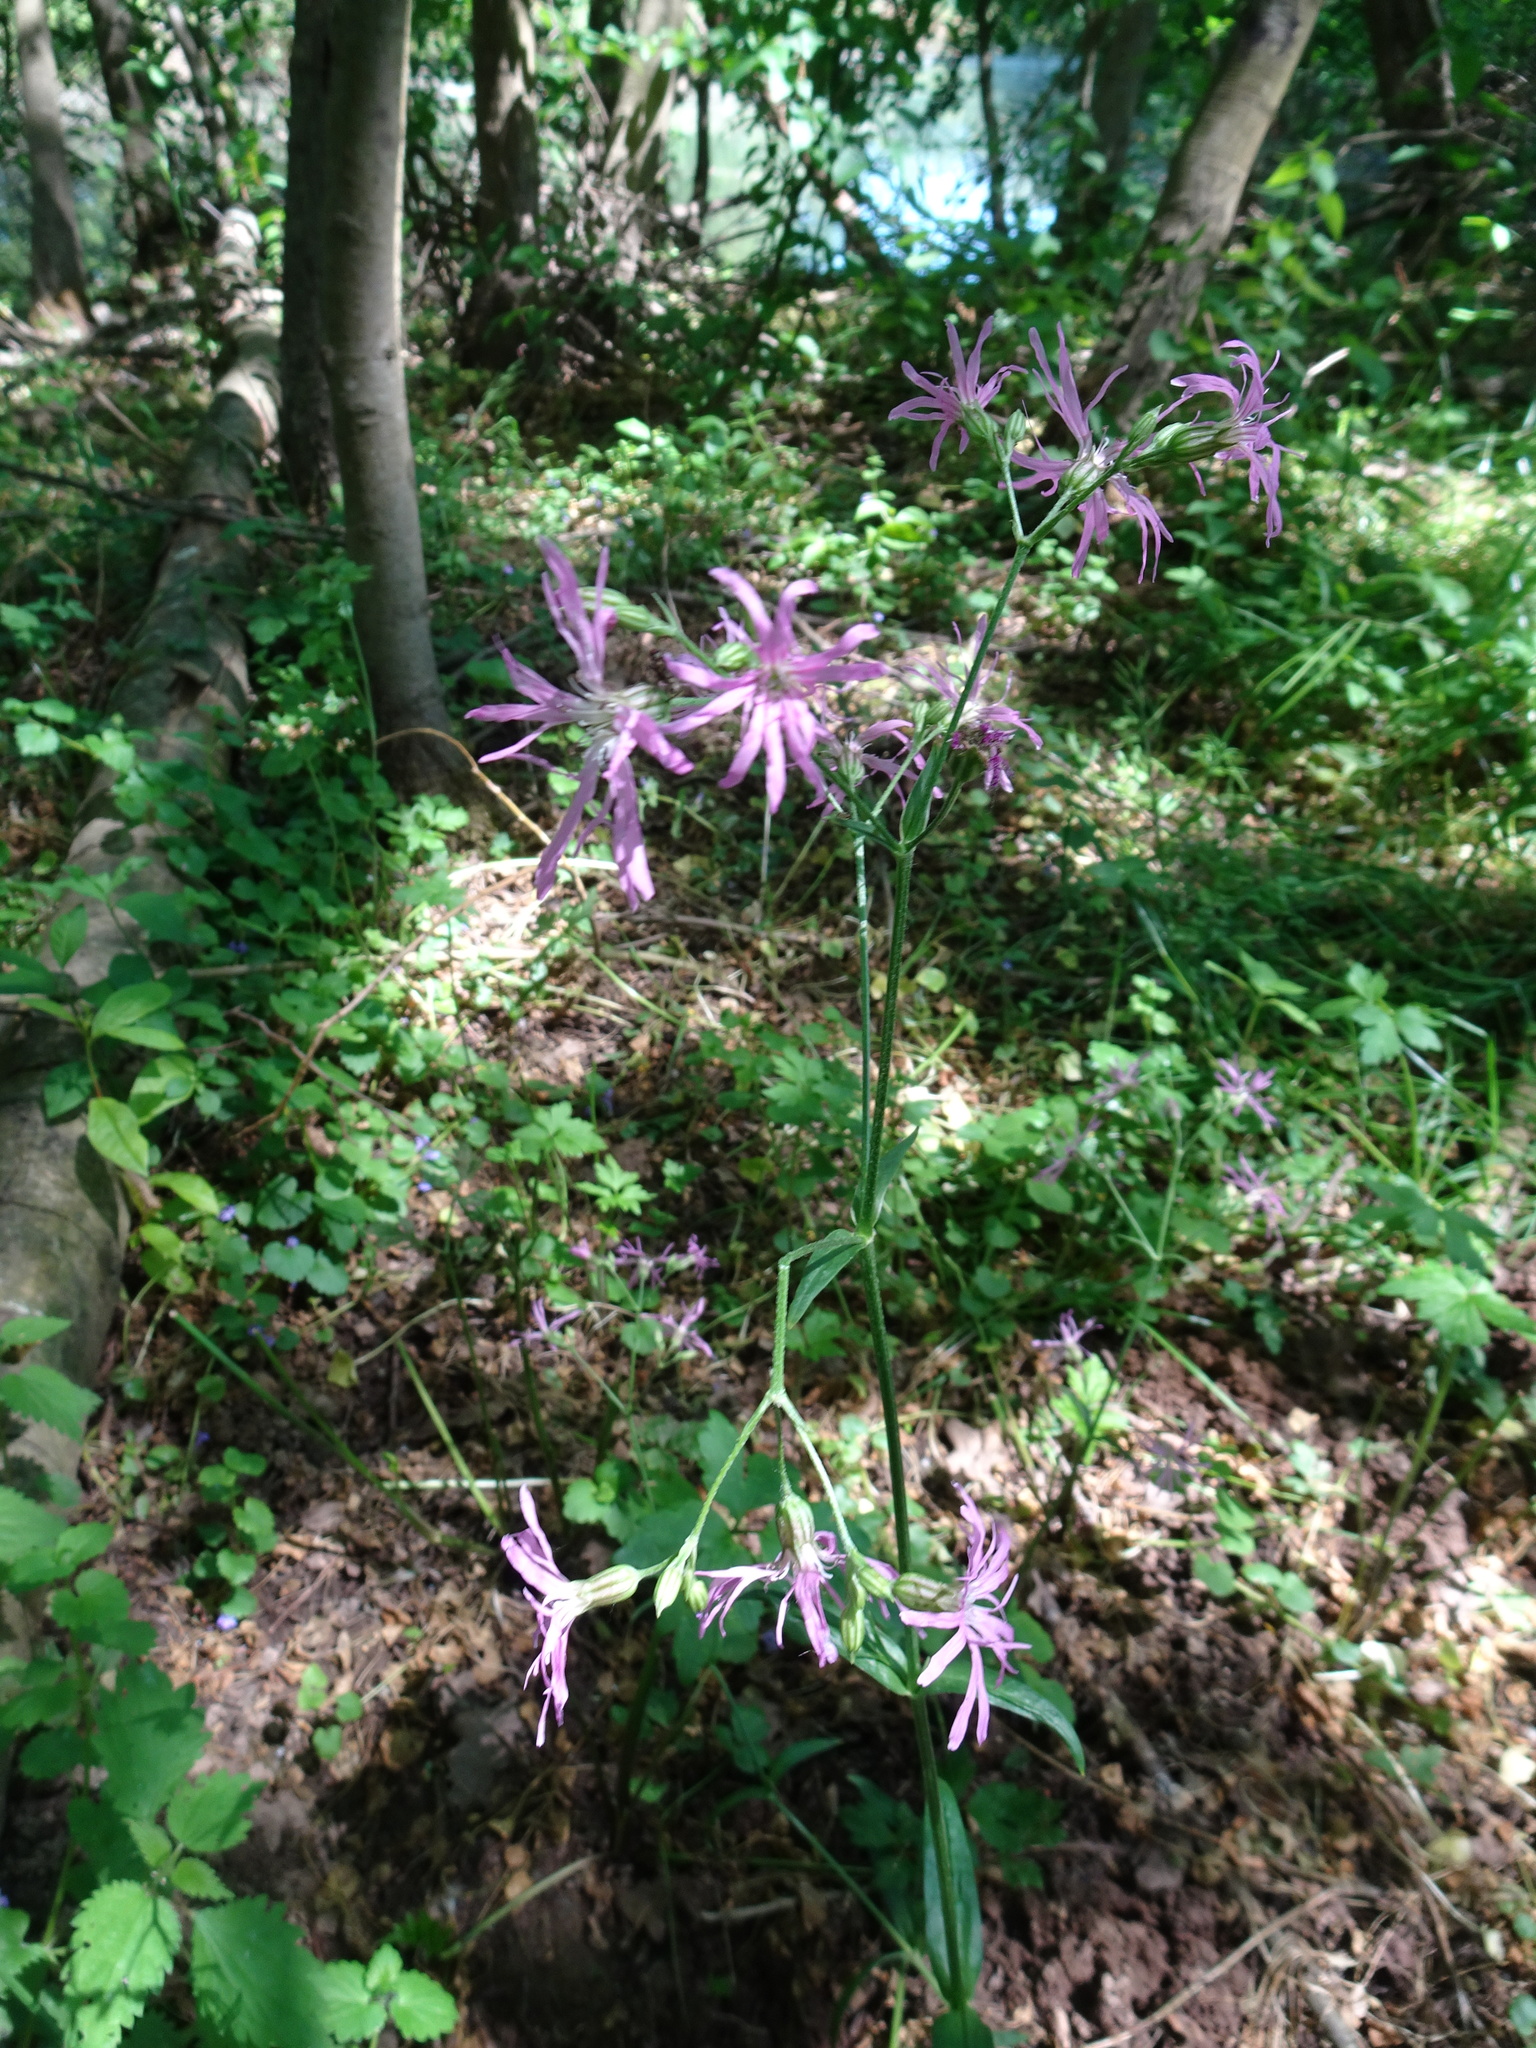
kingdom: Plantae
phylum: Tracheophyta
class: Magnoliopsida
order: Caryophyllales
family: Caryophyllaceae
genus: Silene
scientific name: Silene flos-cuculi
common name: Ragged-robin
